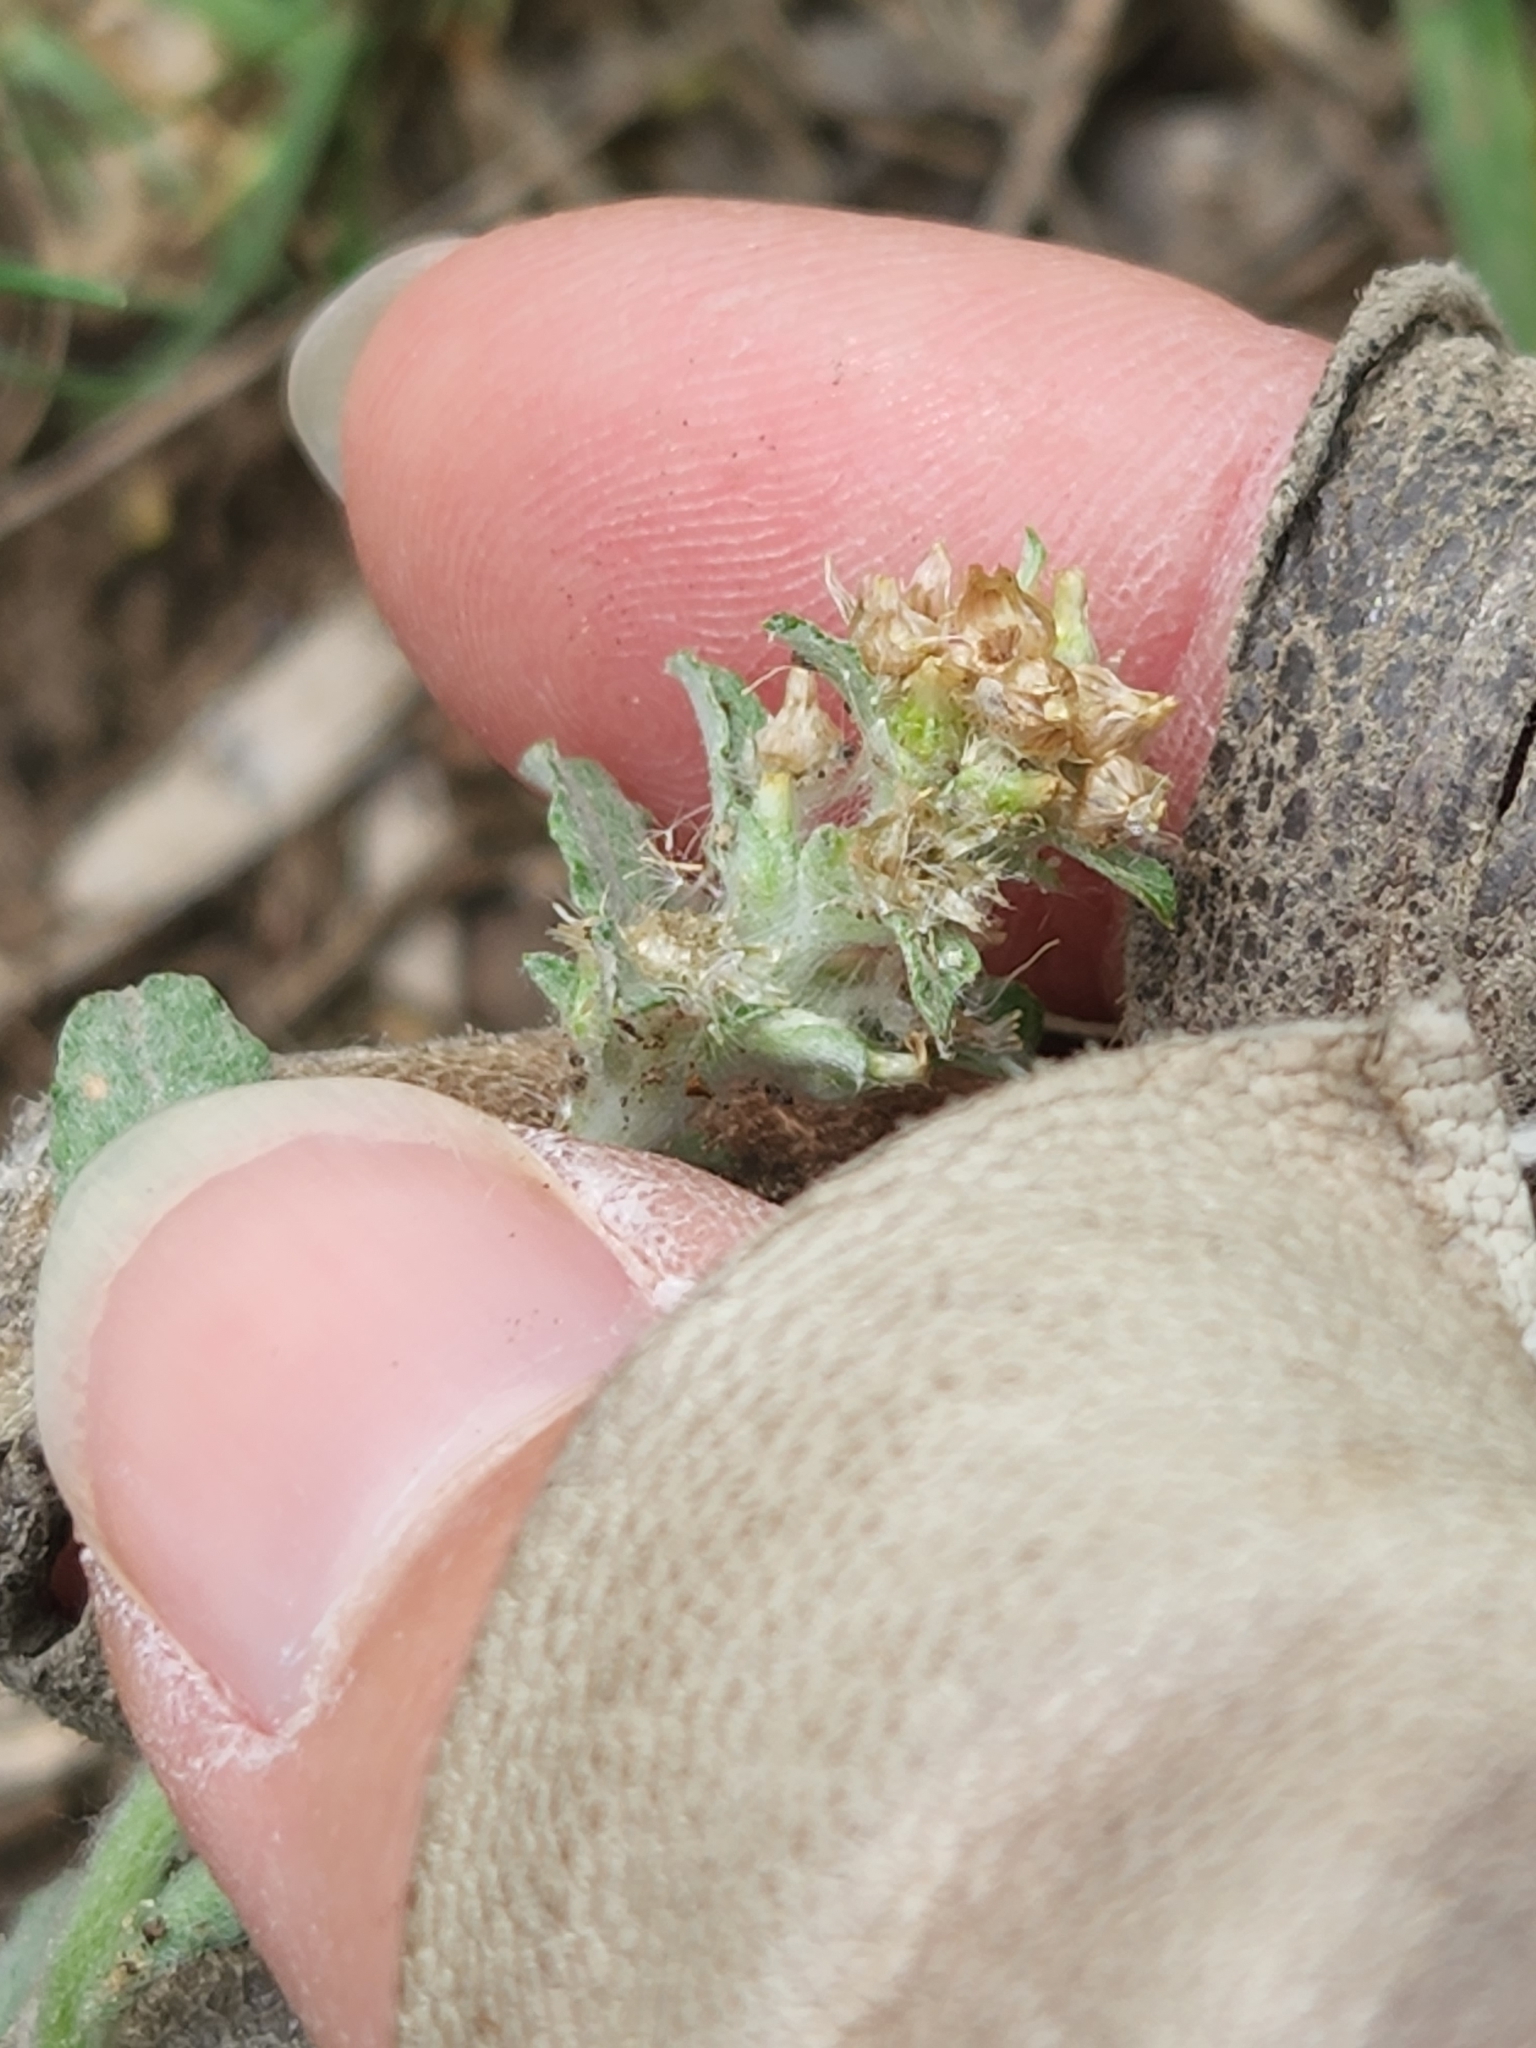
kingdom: Plantae
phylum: Tracheophyta
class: Magnoliopsida
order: Asterales
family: Asteraceae
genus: Gamochaeta
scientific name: Gamochaeta pensylvanica
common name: Pennsylvania everlasting
